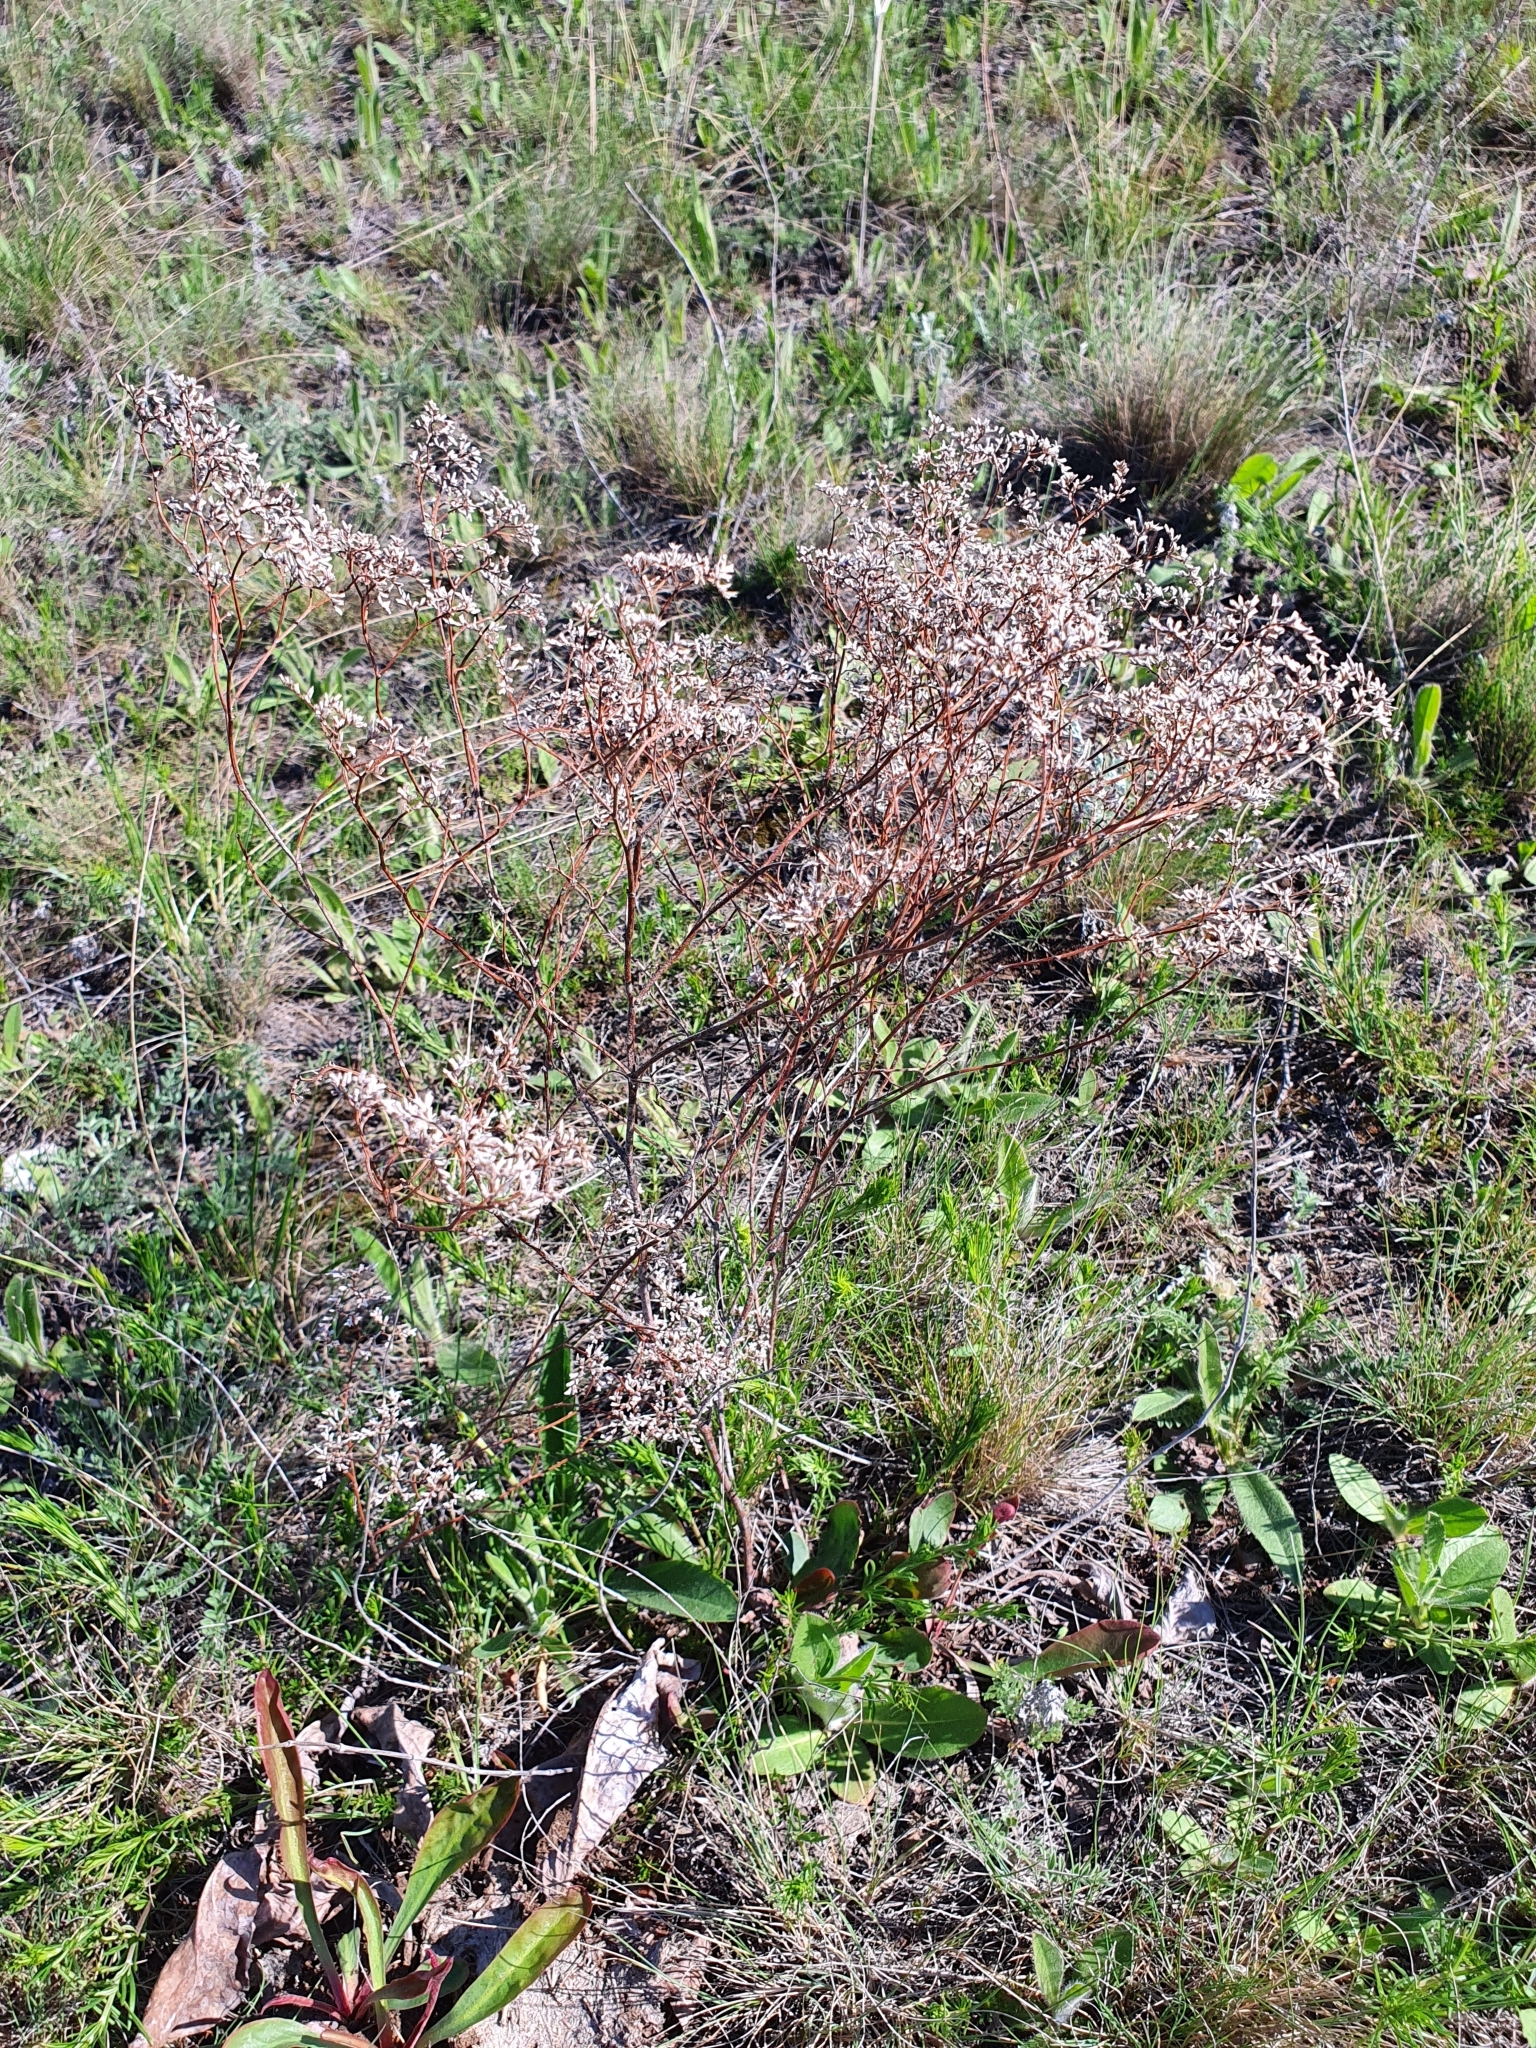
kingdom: Plantae
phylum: Tracheophyta
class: Magnoliopsida
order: Caryophyllales
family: Plumbaginaceae
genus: Limonium
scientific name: Limonium gmelini
